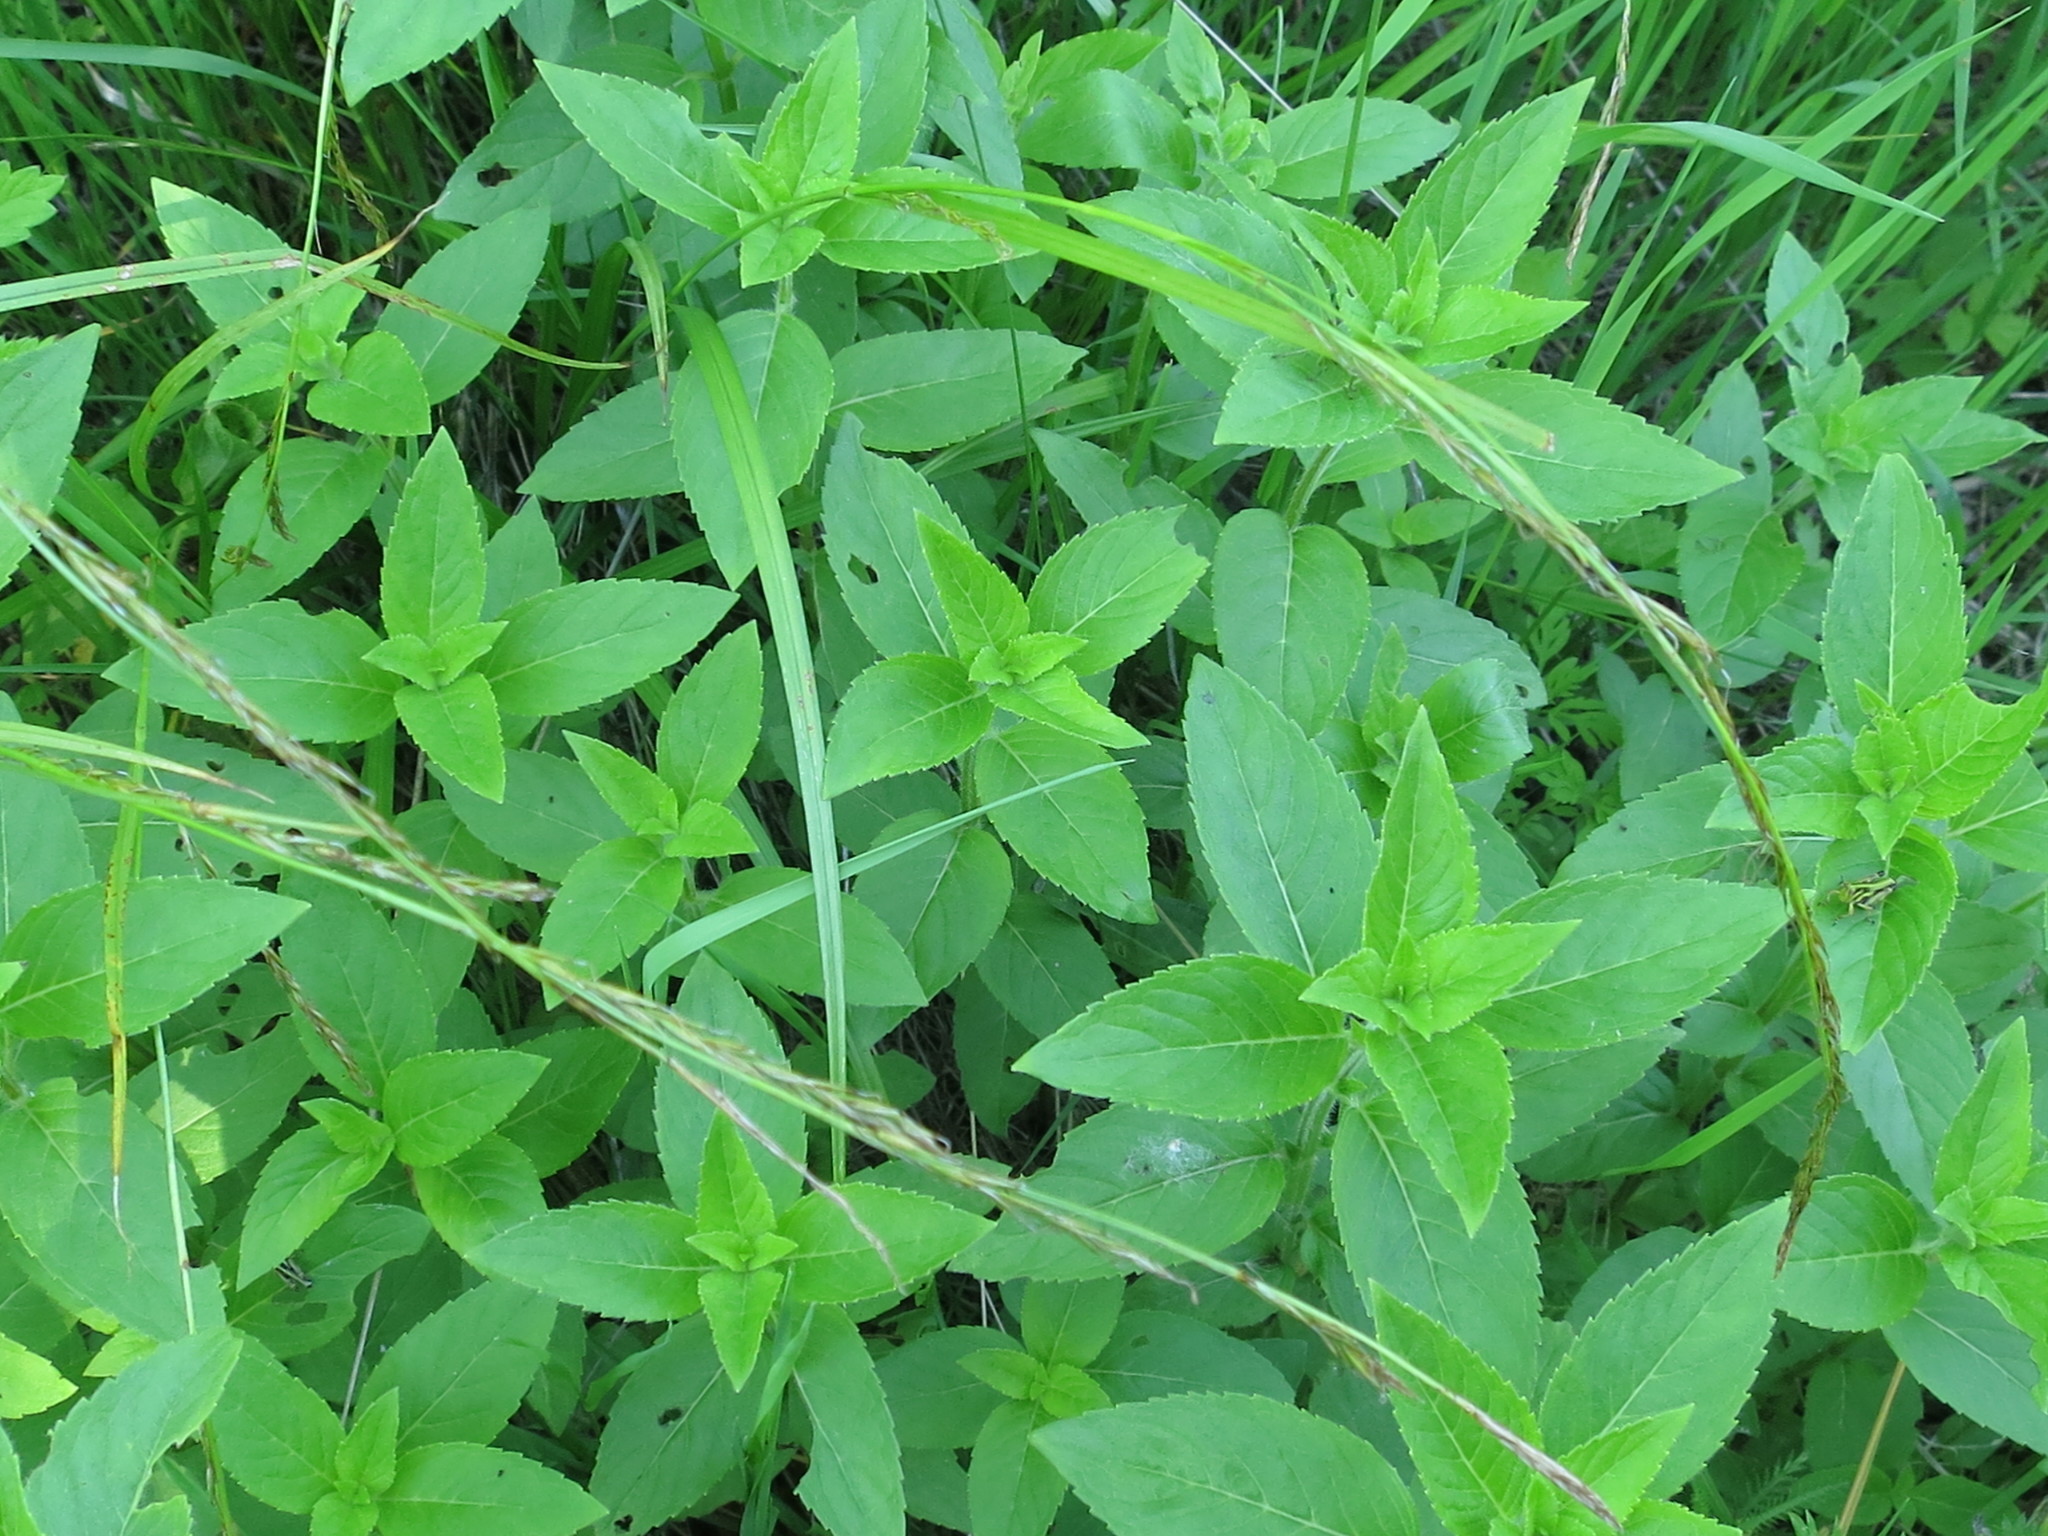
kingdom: Plantae
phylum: Tracheophyta
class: Magnoliopsida
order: Lamiales
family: Lamiaceae
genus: Mentha
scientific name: Mentha canadensis
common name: American corn mint
